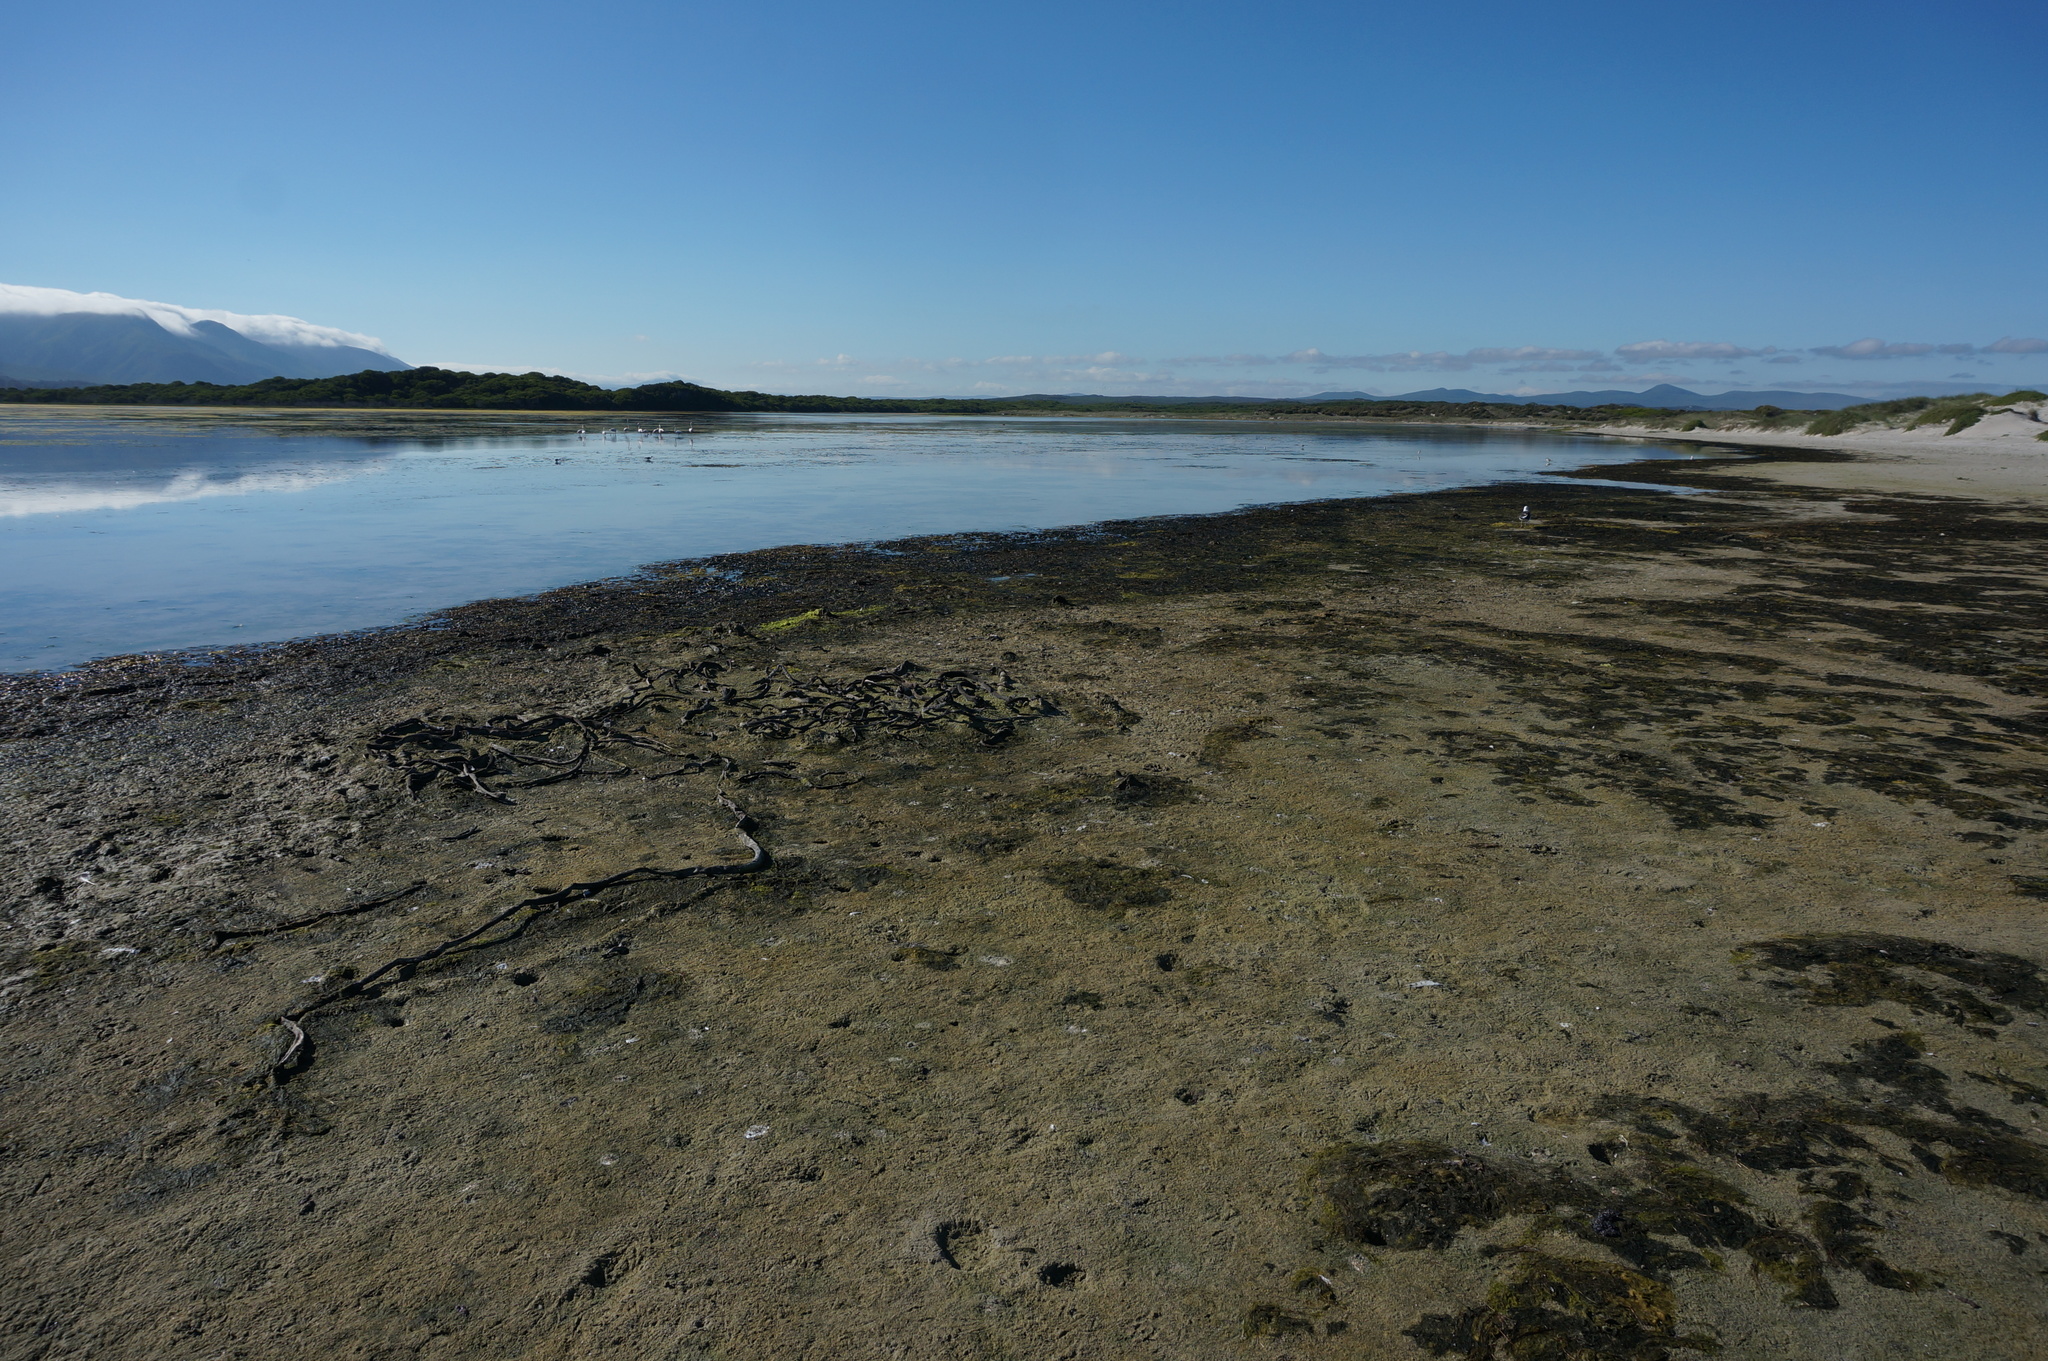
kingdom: Animalia
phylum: Chordata
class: Aves
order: Phoenicopteriformes
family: Phoenicopteridae
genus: Phoenicopterus
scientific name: Phoenicopterus roseus
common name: Greater flamingo
